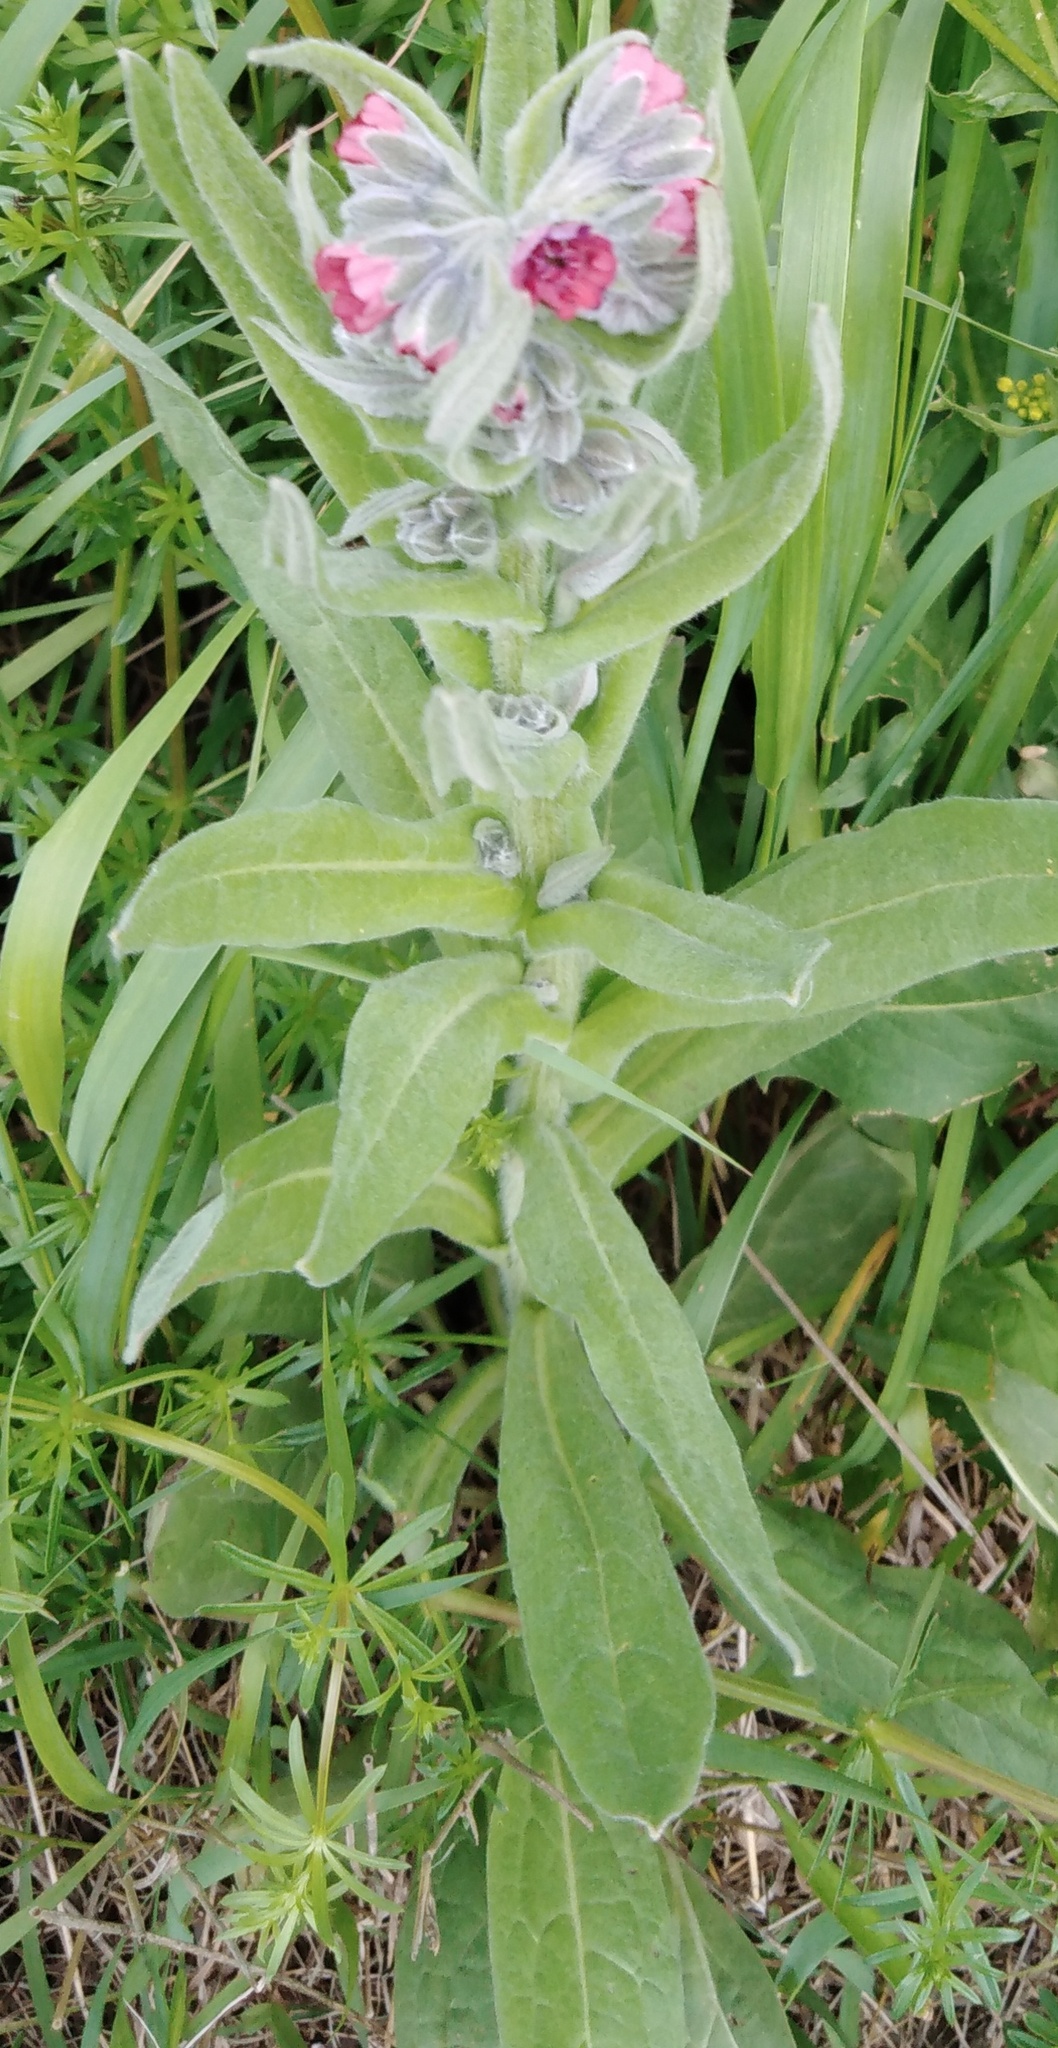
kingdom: Plantae
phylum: Tracheophyta
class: Magnoliopsida
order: Boraginales
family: Boraginaceae
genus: Cynoglossum
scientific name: Cynoglossum officinale
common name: Hound's-tongue
